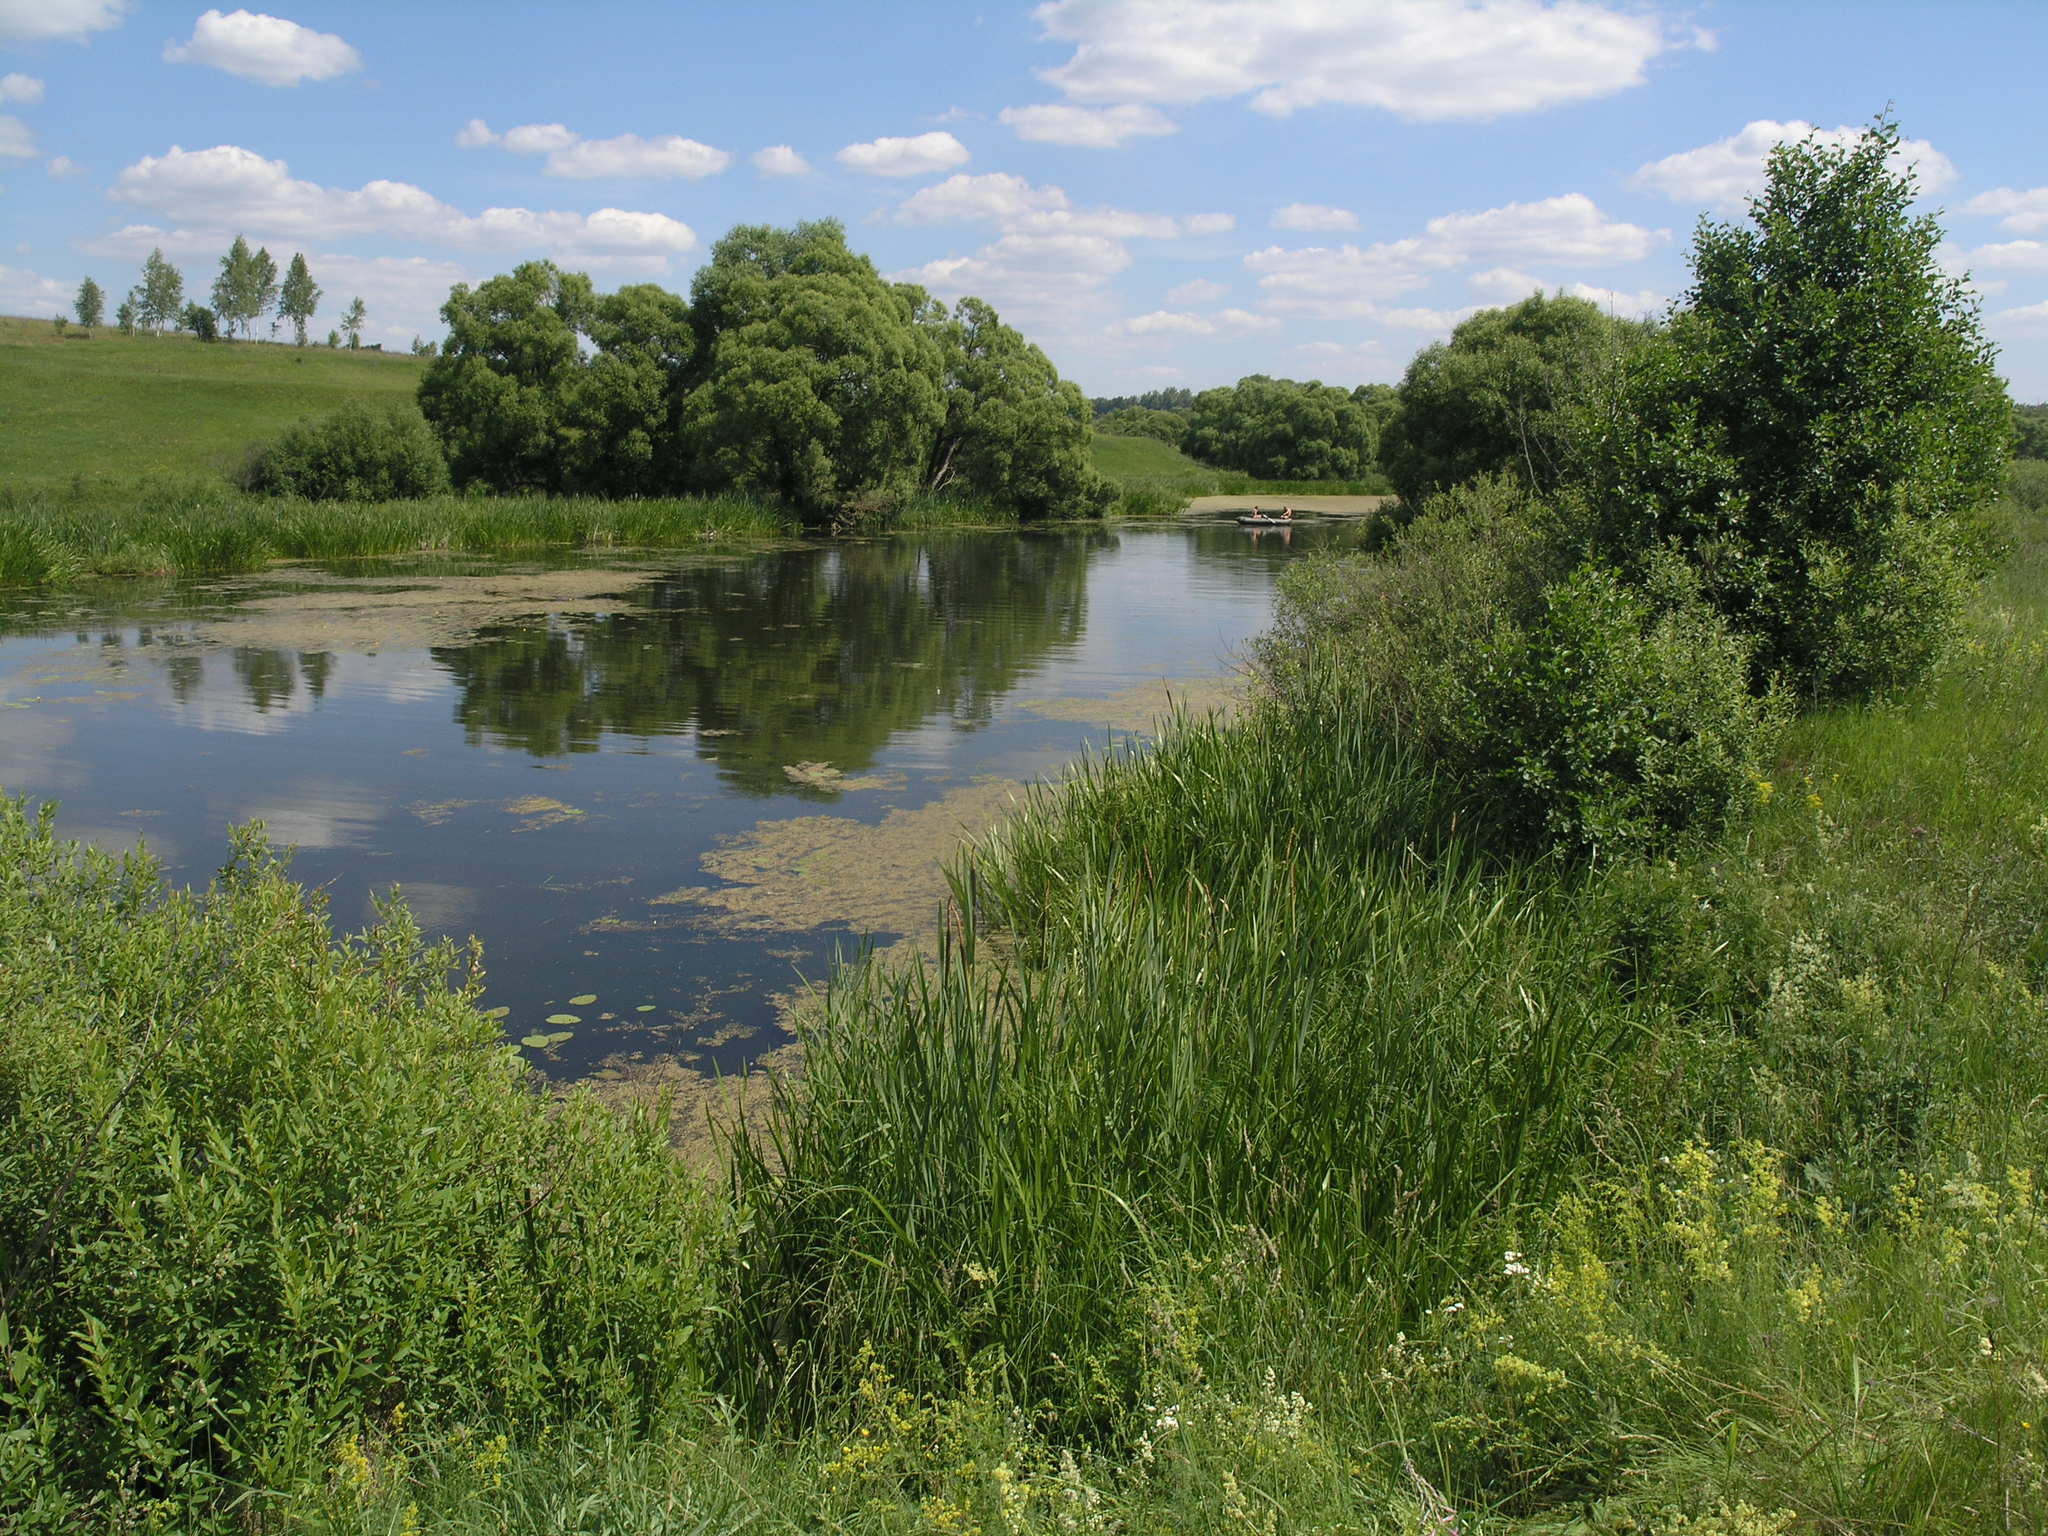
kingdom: Plantae
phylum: Tracheophyta
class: Liliopsida
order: Acorales
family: Acoraceae
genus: Acorus
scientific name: Acorus calamus
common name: Sweet-flag
